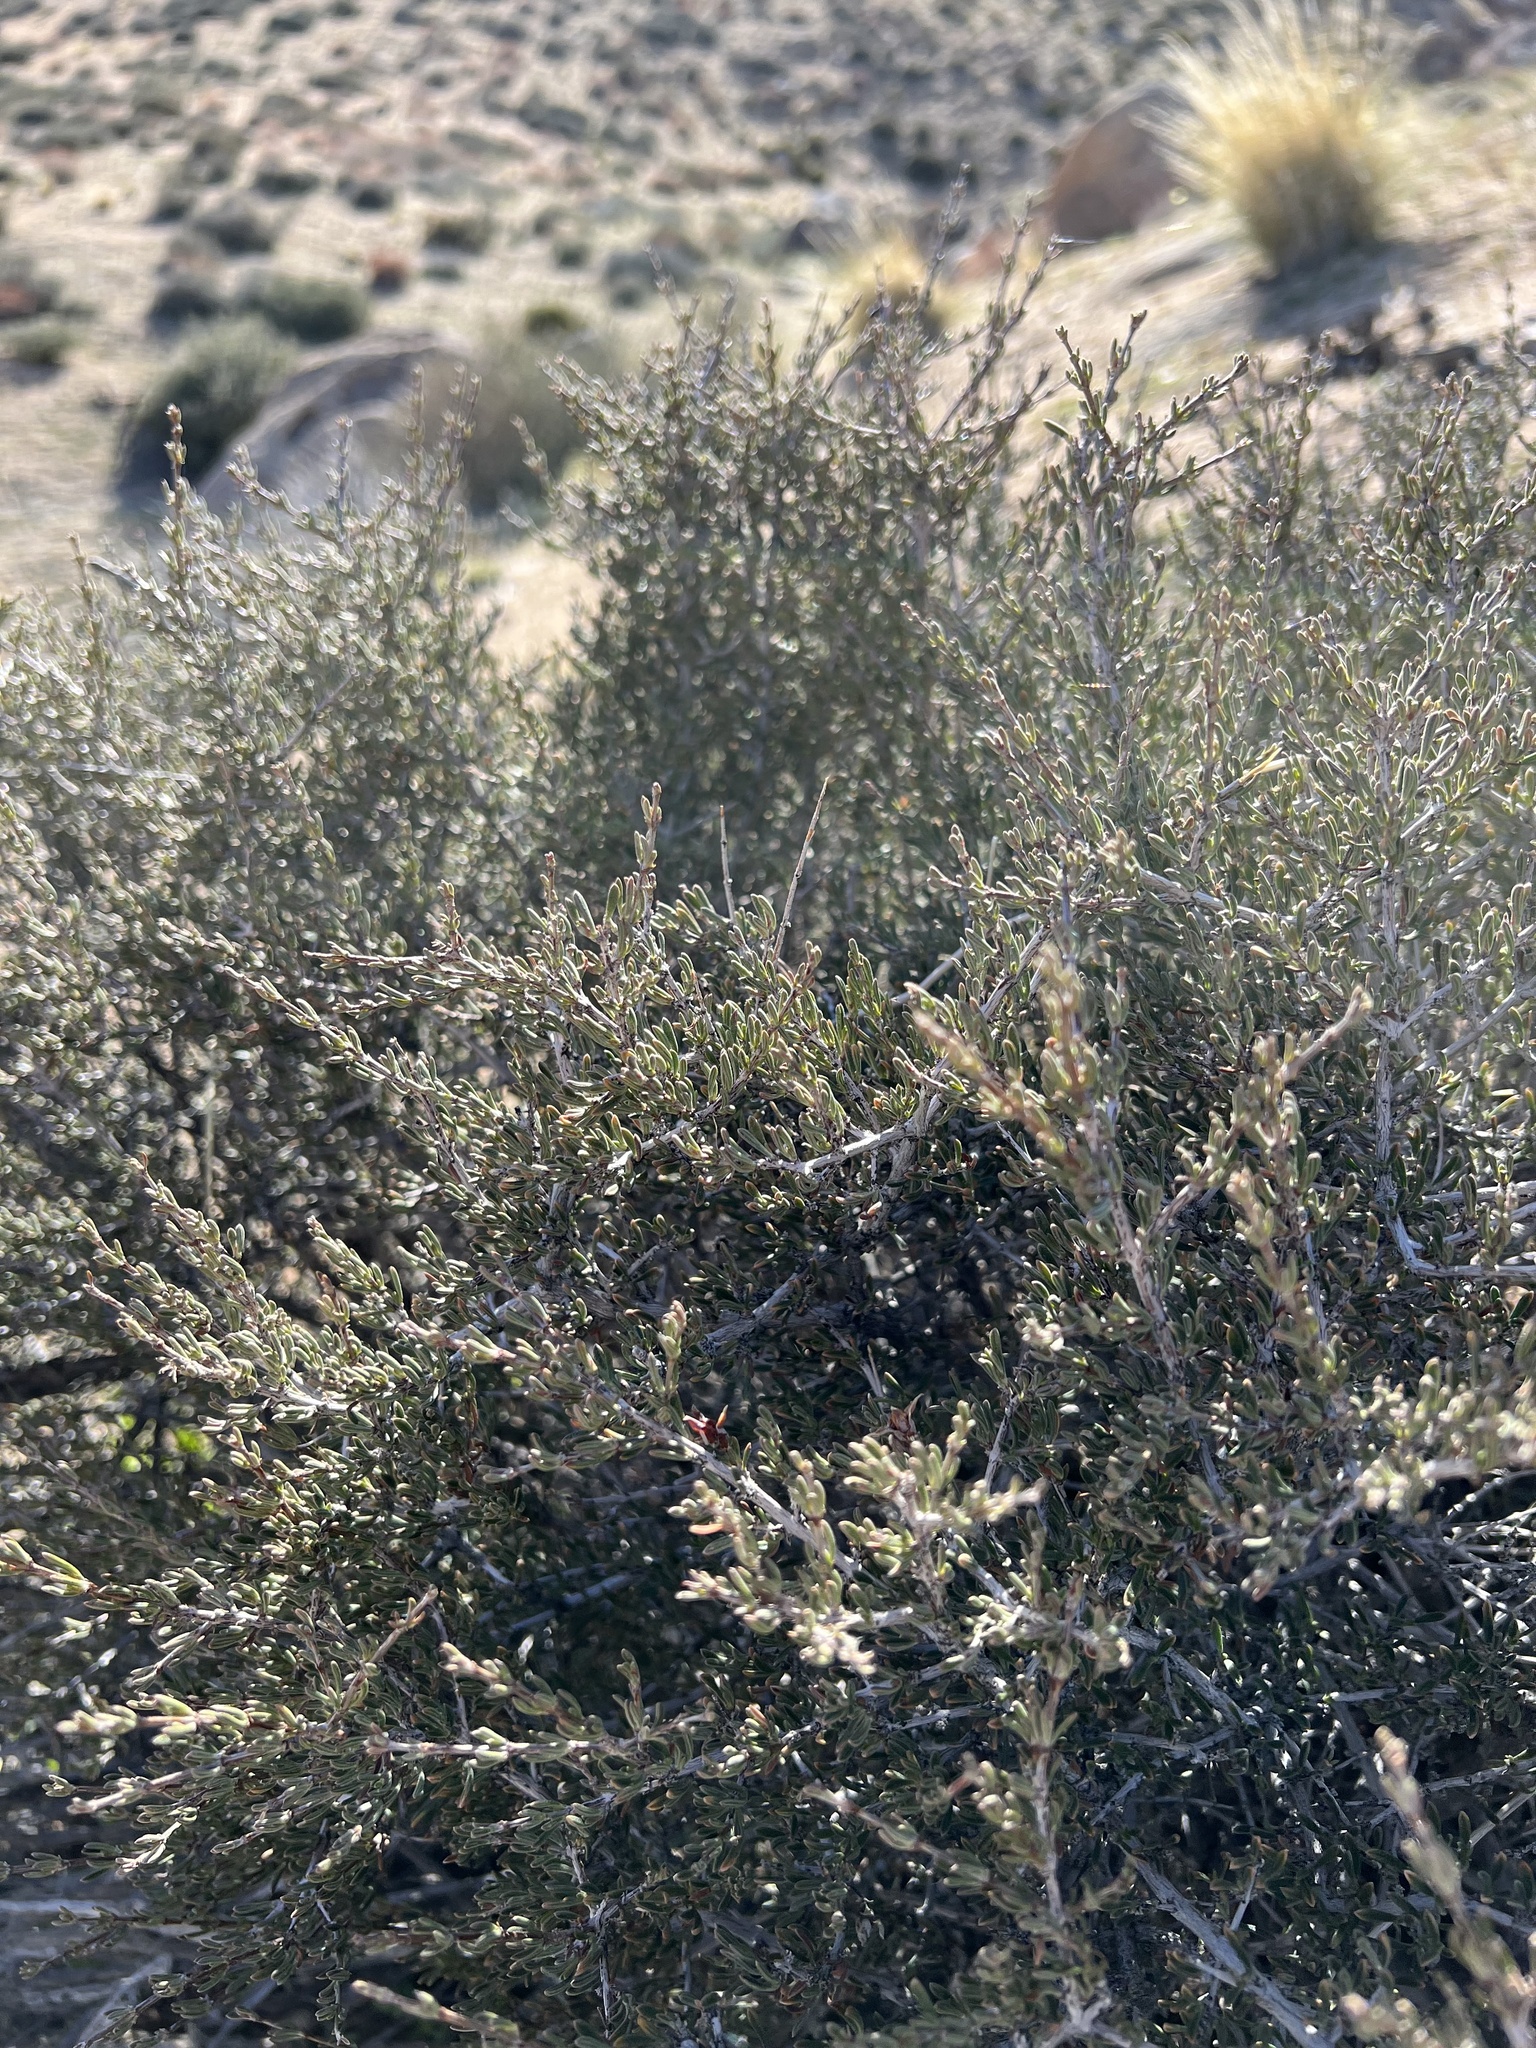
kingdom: Plantae
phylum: Tracheophyta
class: Magnoliopsida
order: Rosales
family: Rosaceae
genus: Coleogyne
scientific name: Coleogyne ramosissima
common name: Blackbrush
